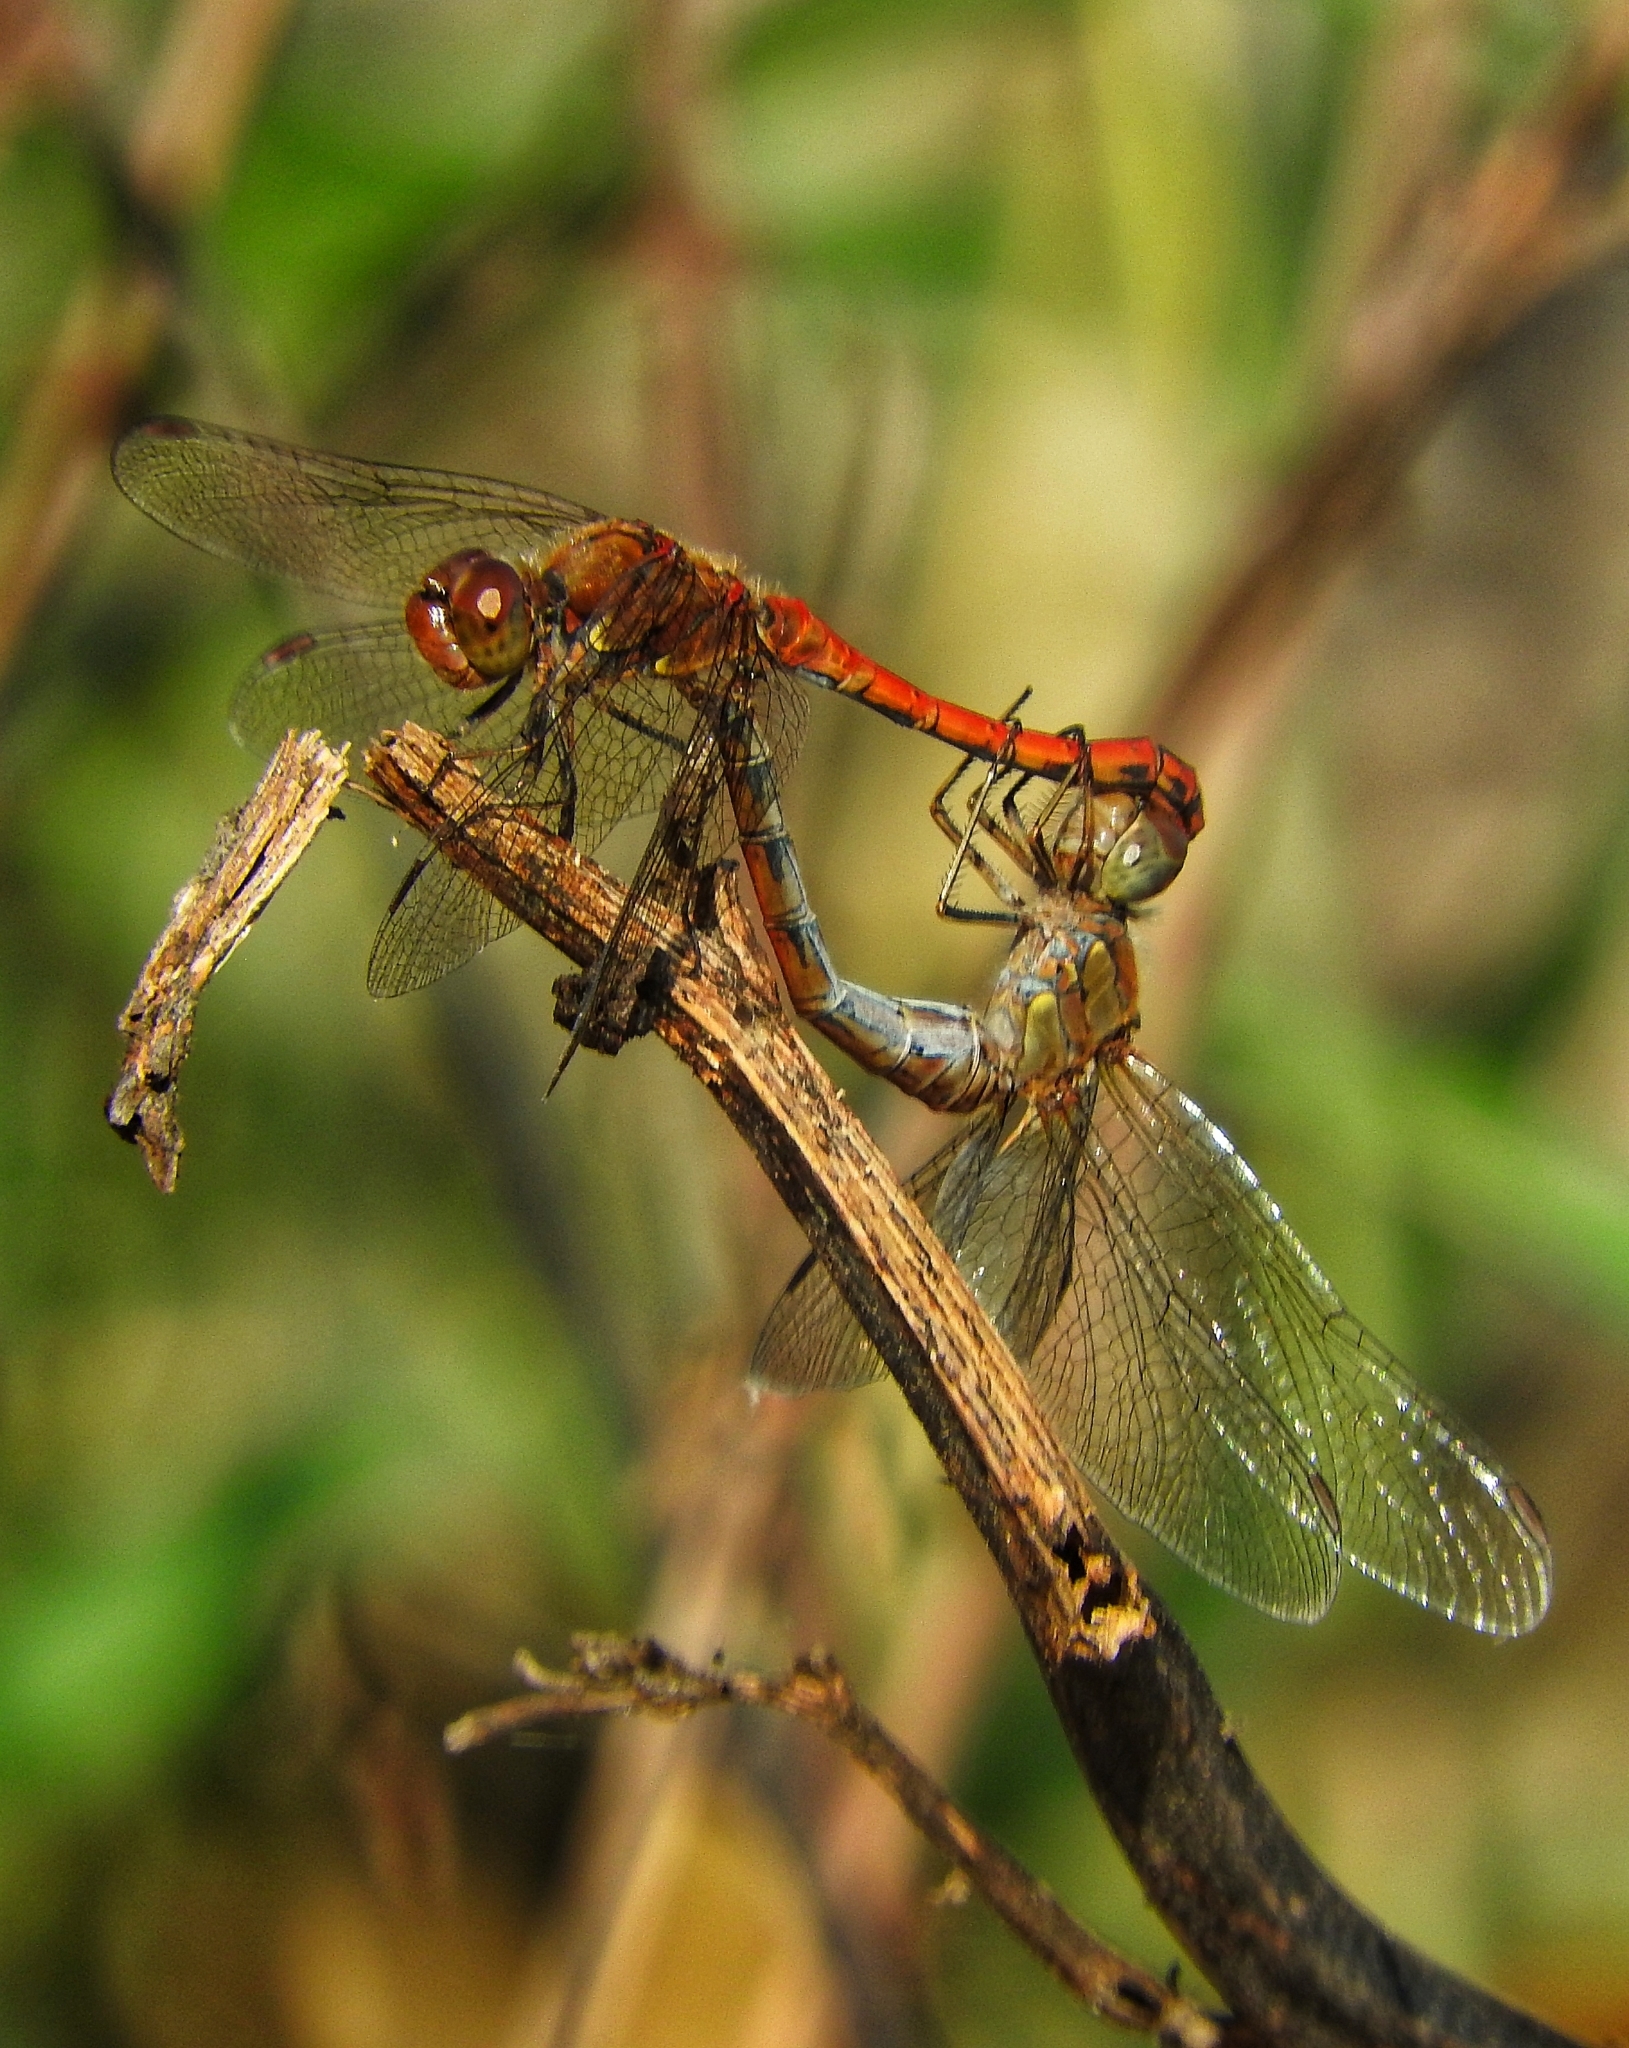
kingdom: Animalia
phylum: Arthropoda
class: Insecta
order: Odonata
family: Libellulidae
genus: Sympetrum
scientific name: Sympetrum striolatum
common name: Common darter
